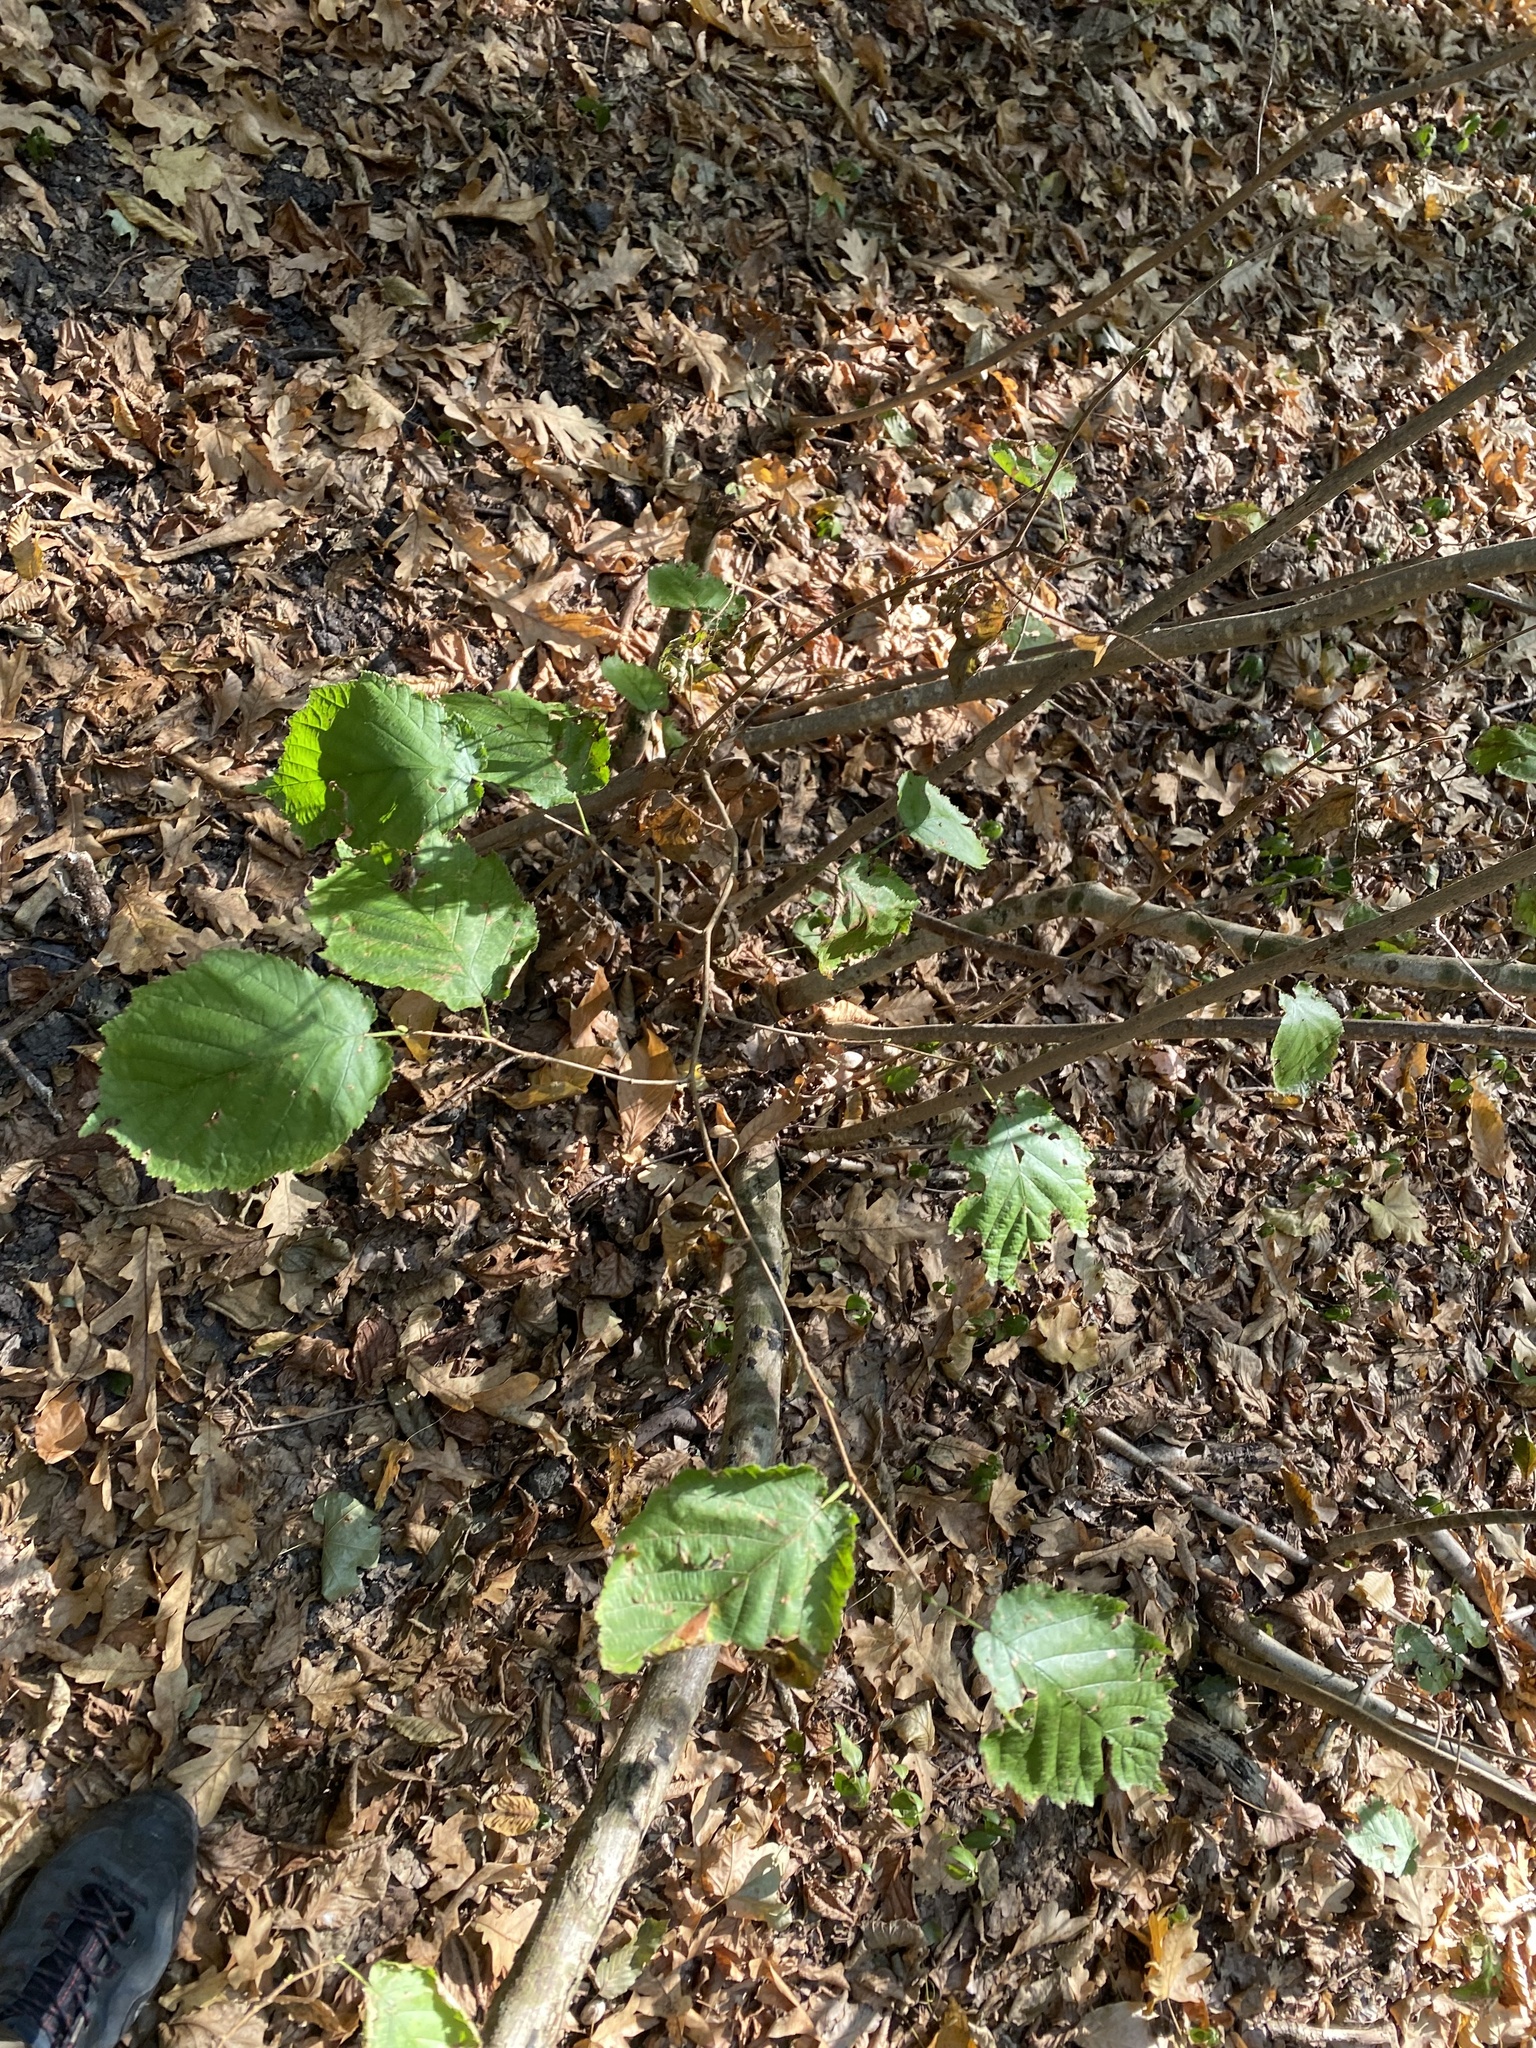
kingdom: Plantae
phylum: Tracheophyta
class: Magnoliopsida
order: Fagales
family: Betulaceae
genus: Corylus
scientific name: Corylus avellana
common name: European hazel
